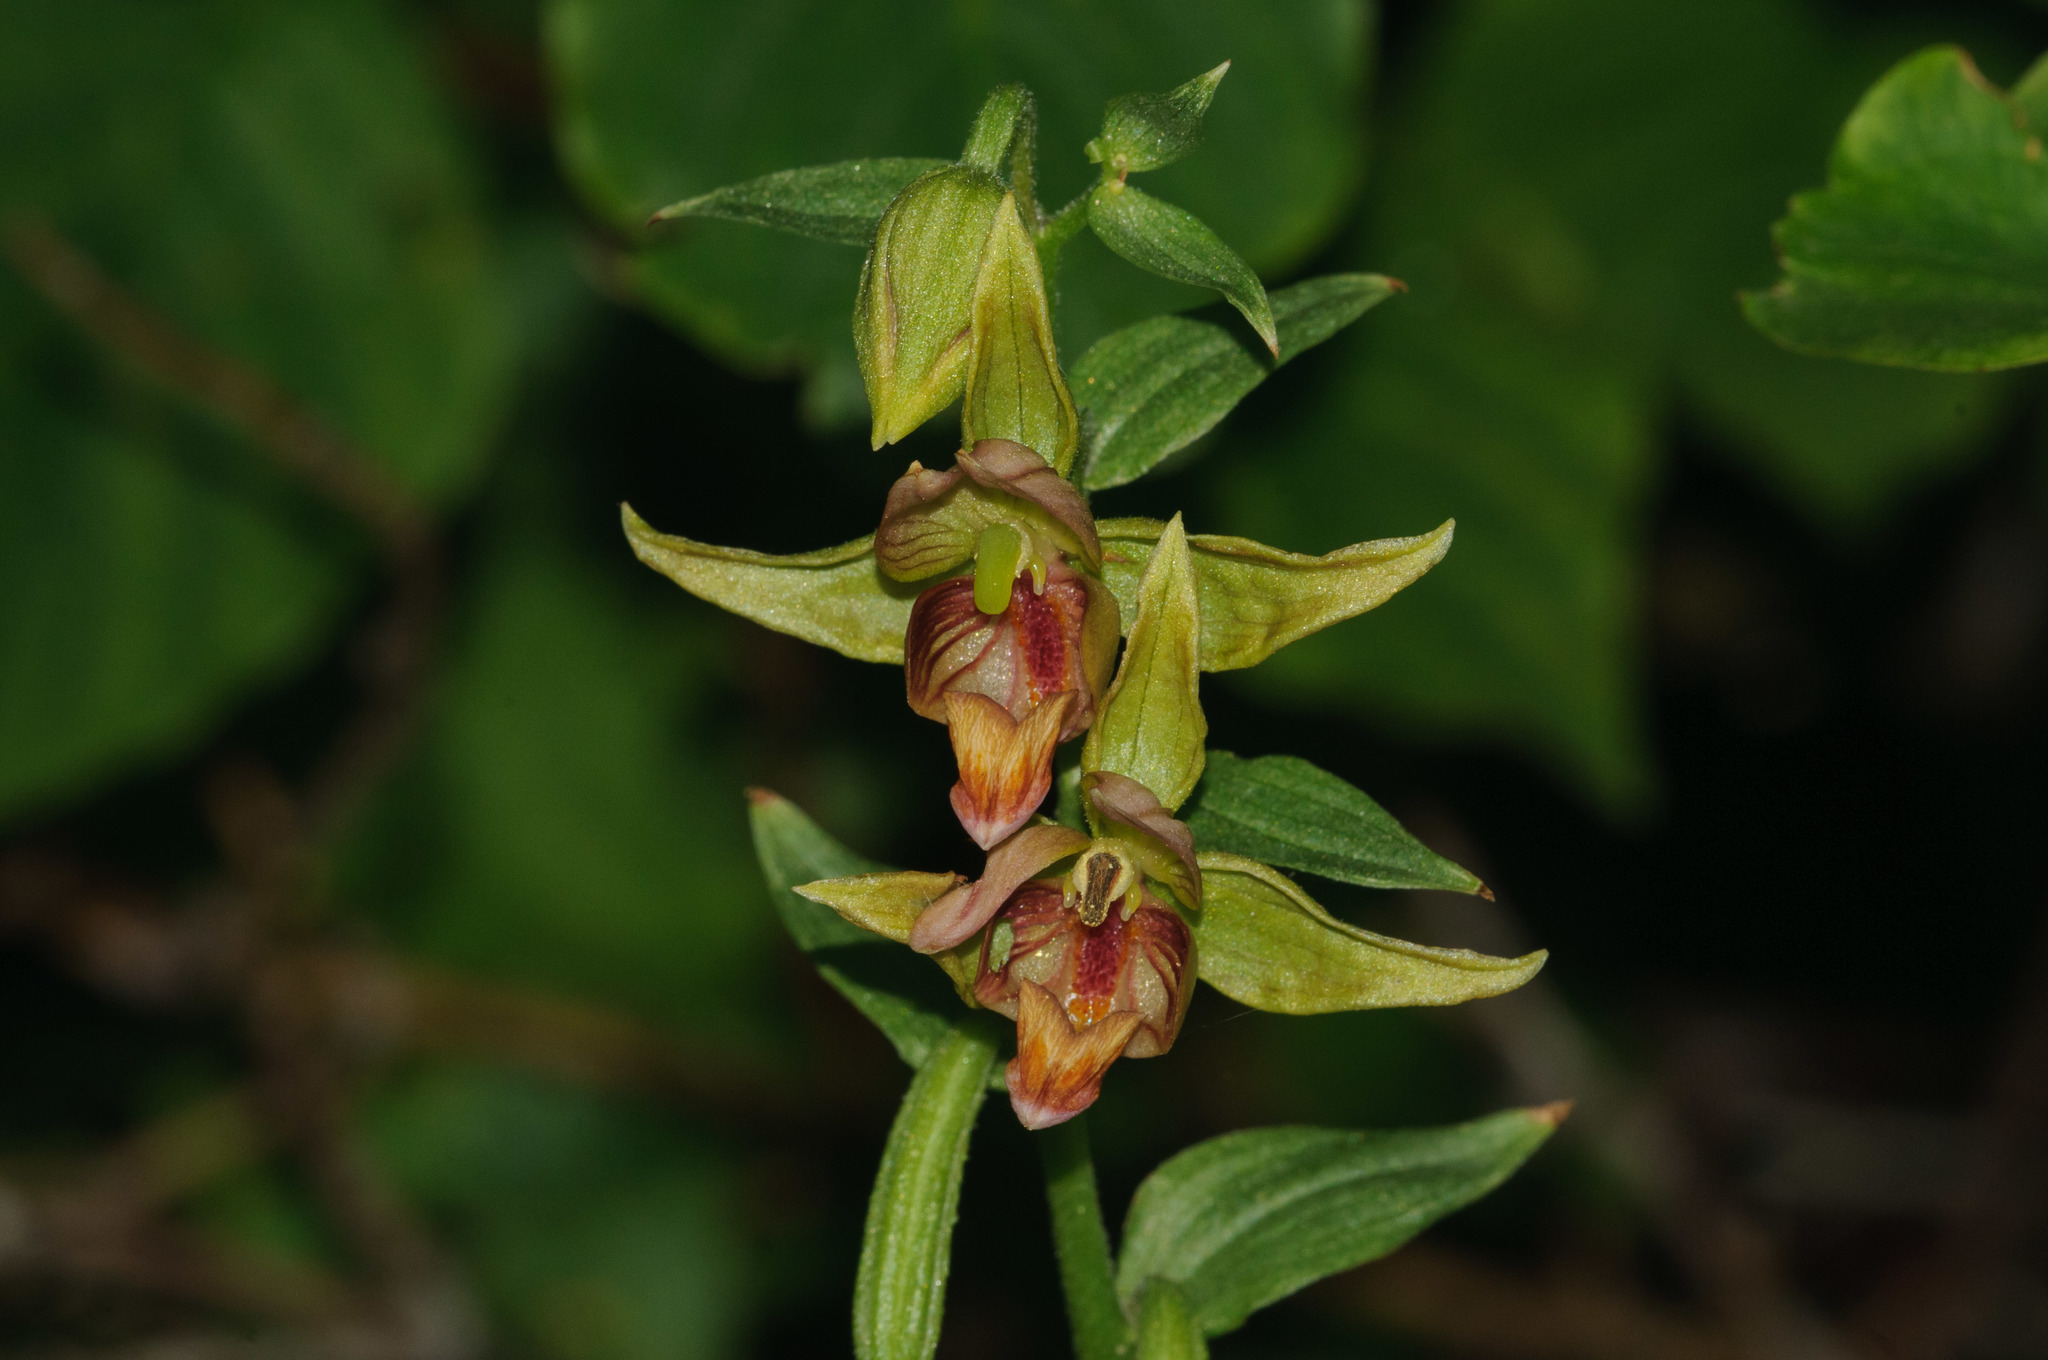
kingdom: Plantae
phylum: Tracheophyta
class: Liliopsida
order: Asparagales
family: Orchidaceae
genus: Epipactis
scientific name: Epipactis gigantea
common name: Chatterbox
